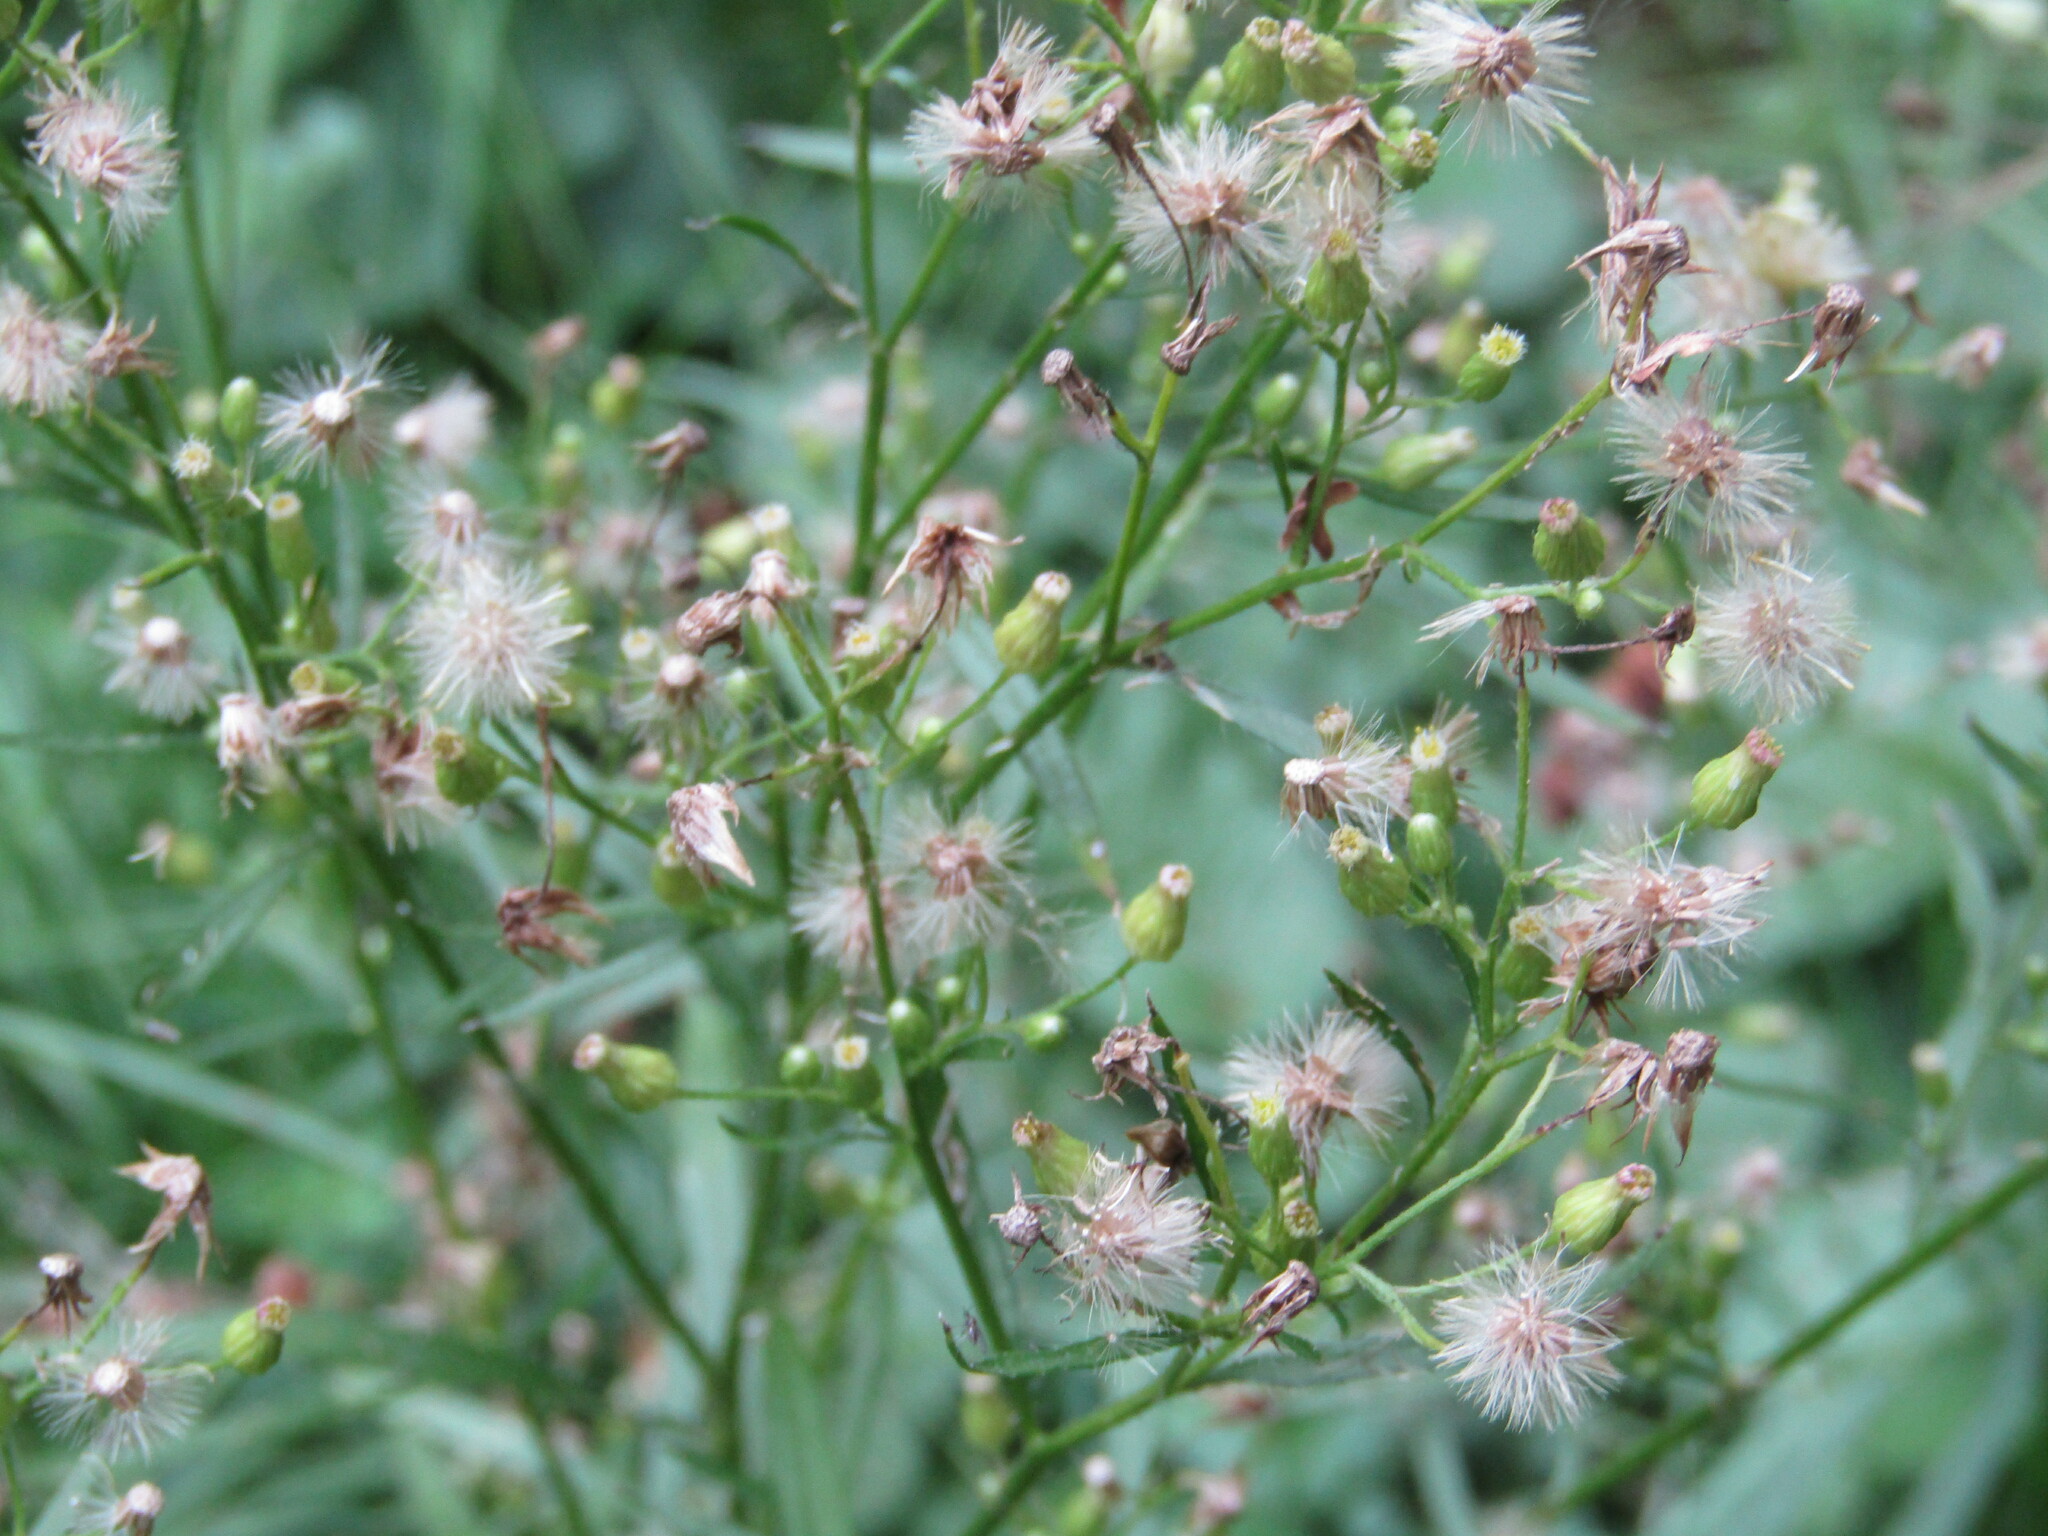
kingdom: Plantae
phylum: Tracheophyta
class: Magnoliopsida
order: Asterales
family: Asteraceae
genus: Erigeron
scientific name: Erigeron canadensis
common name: Canadian fleabane
